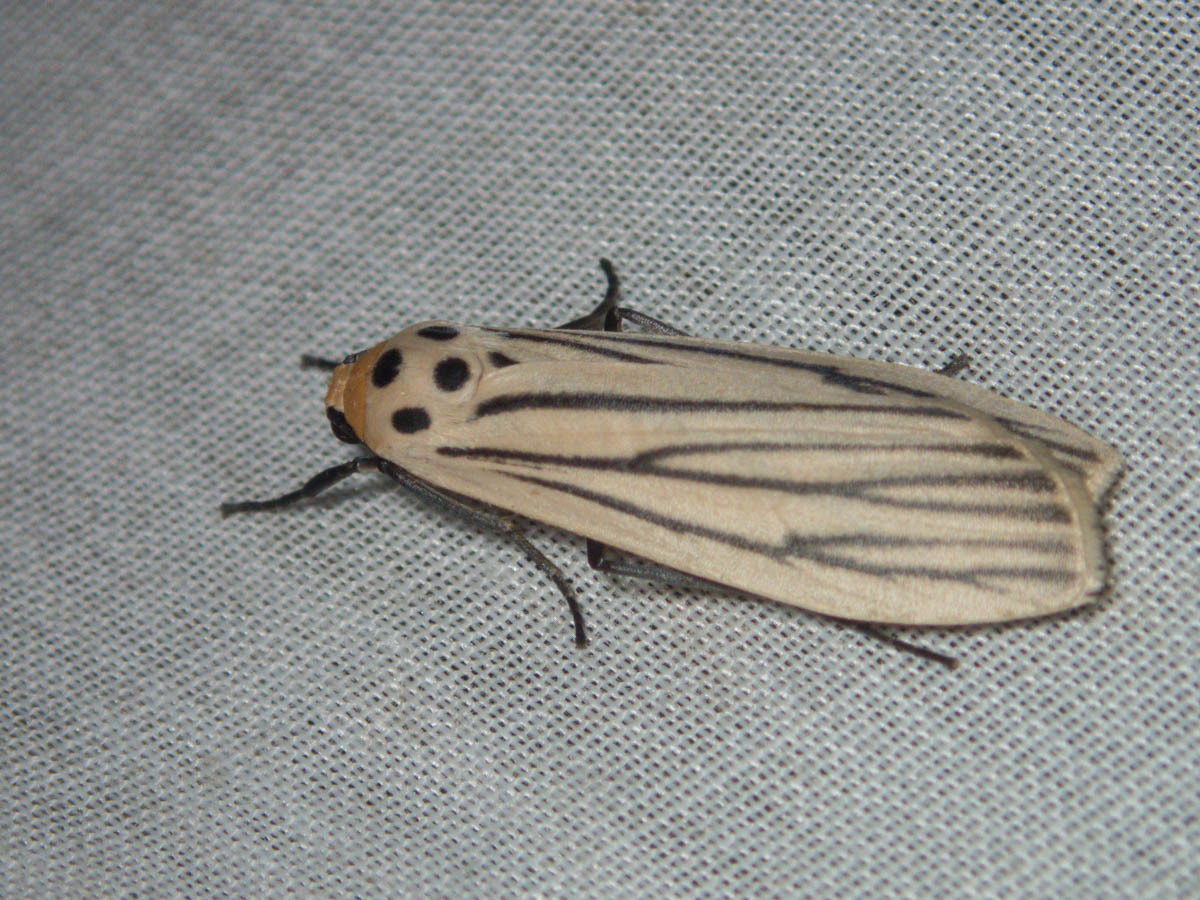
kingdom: Animalia
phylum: Arthropoda
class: Insecta
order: Lepidoptera
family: Erebidae
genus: Tigrioides
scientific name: Tigrioides leucanioides
